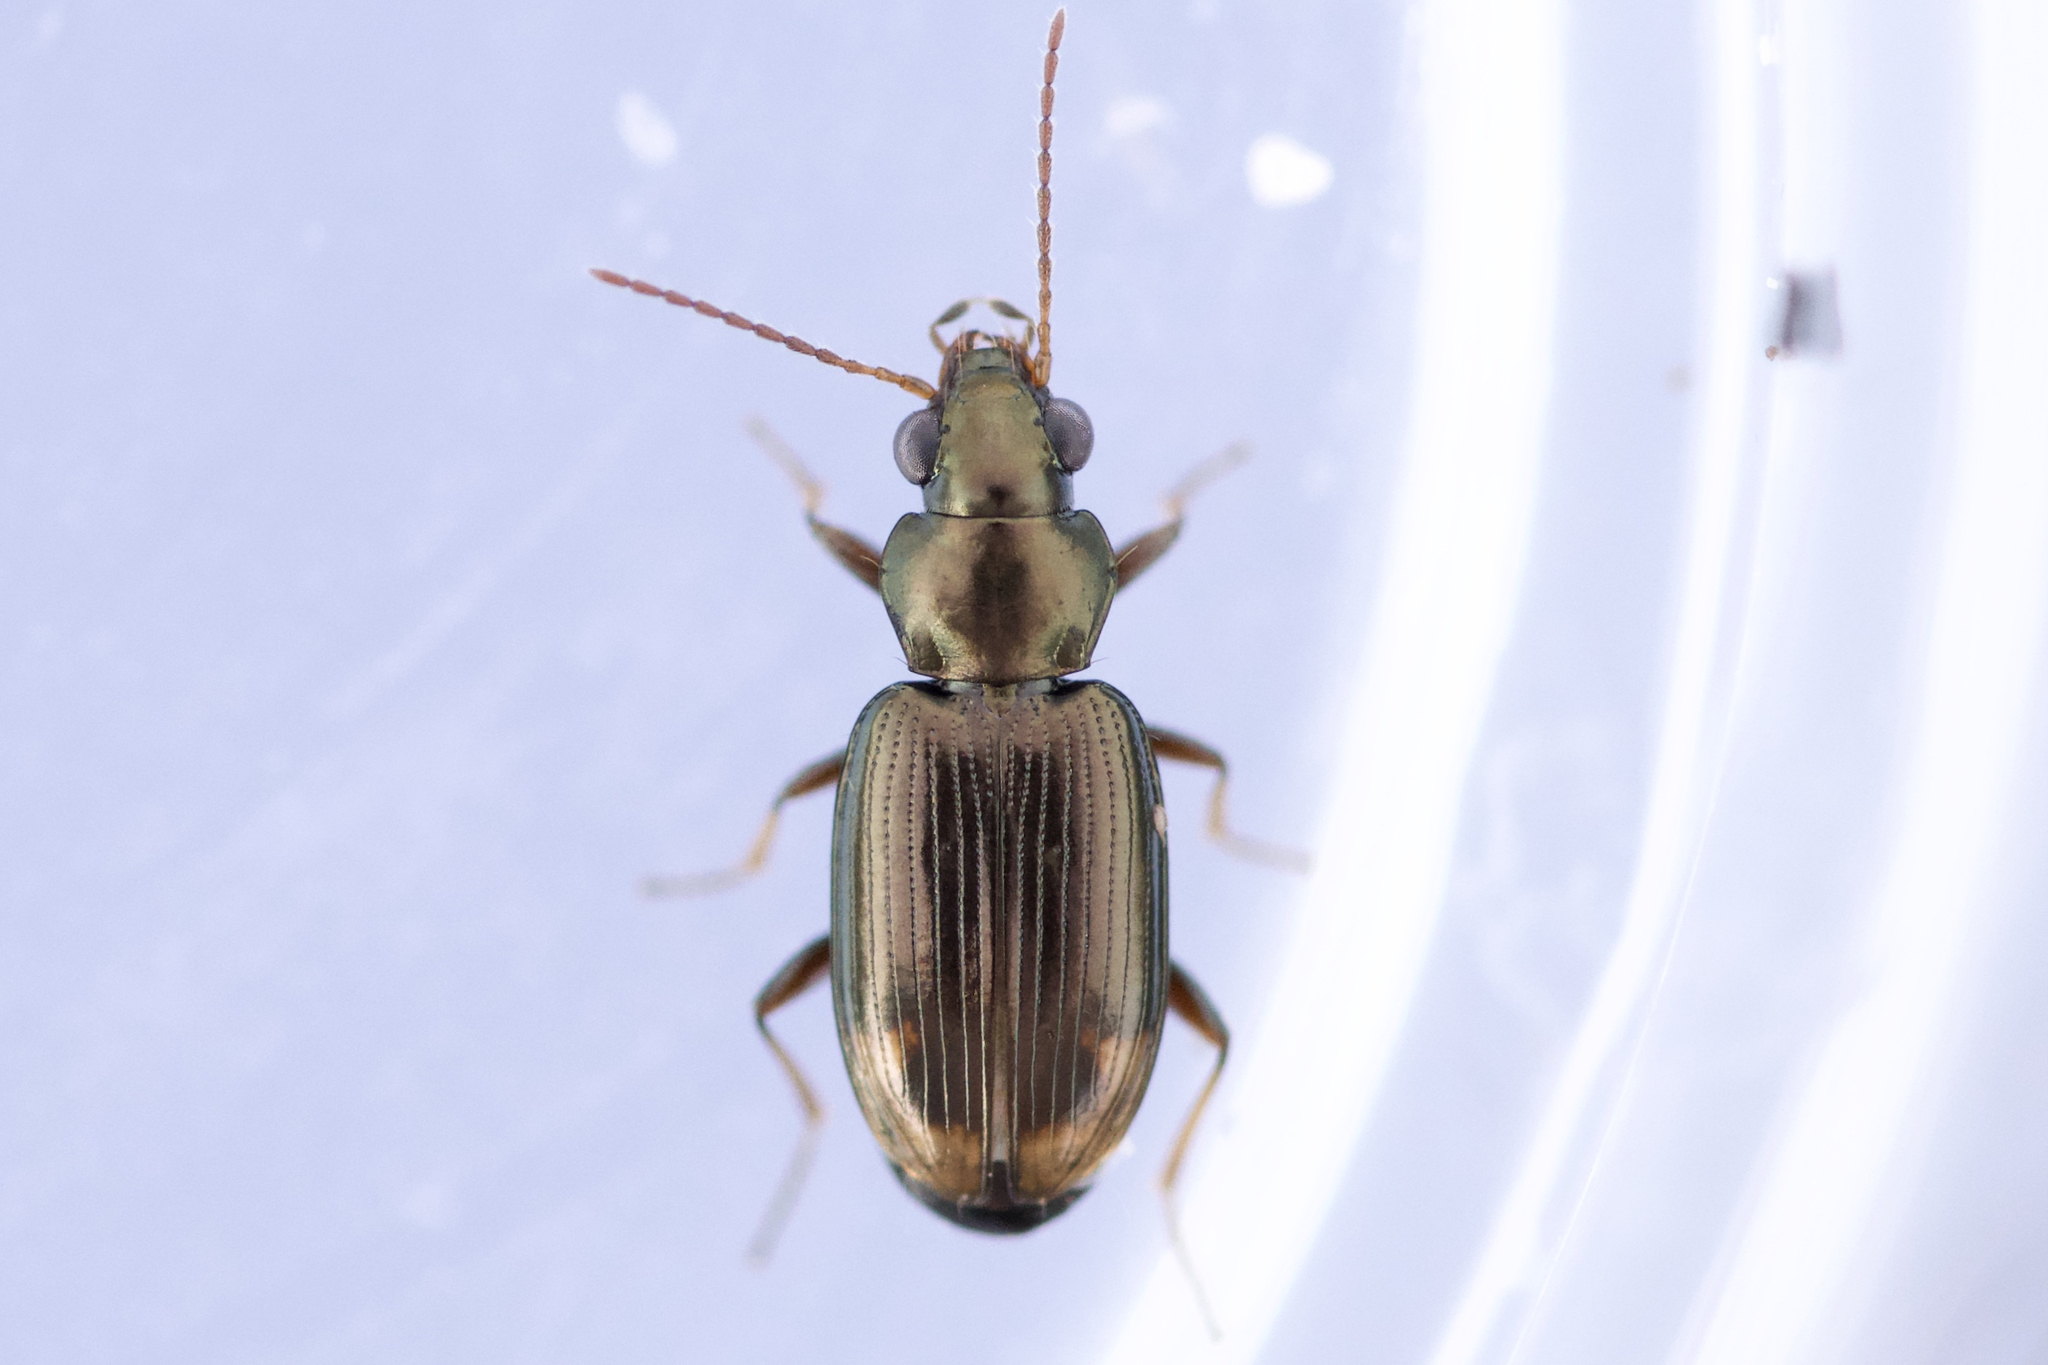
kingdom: Animalia
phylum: Arthropoda
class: Insecta
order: Coleoptera
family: Carabidae
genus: Bembidion
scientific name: Bembidion rapidum
